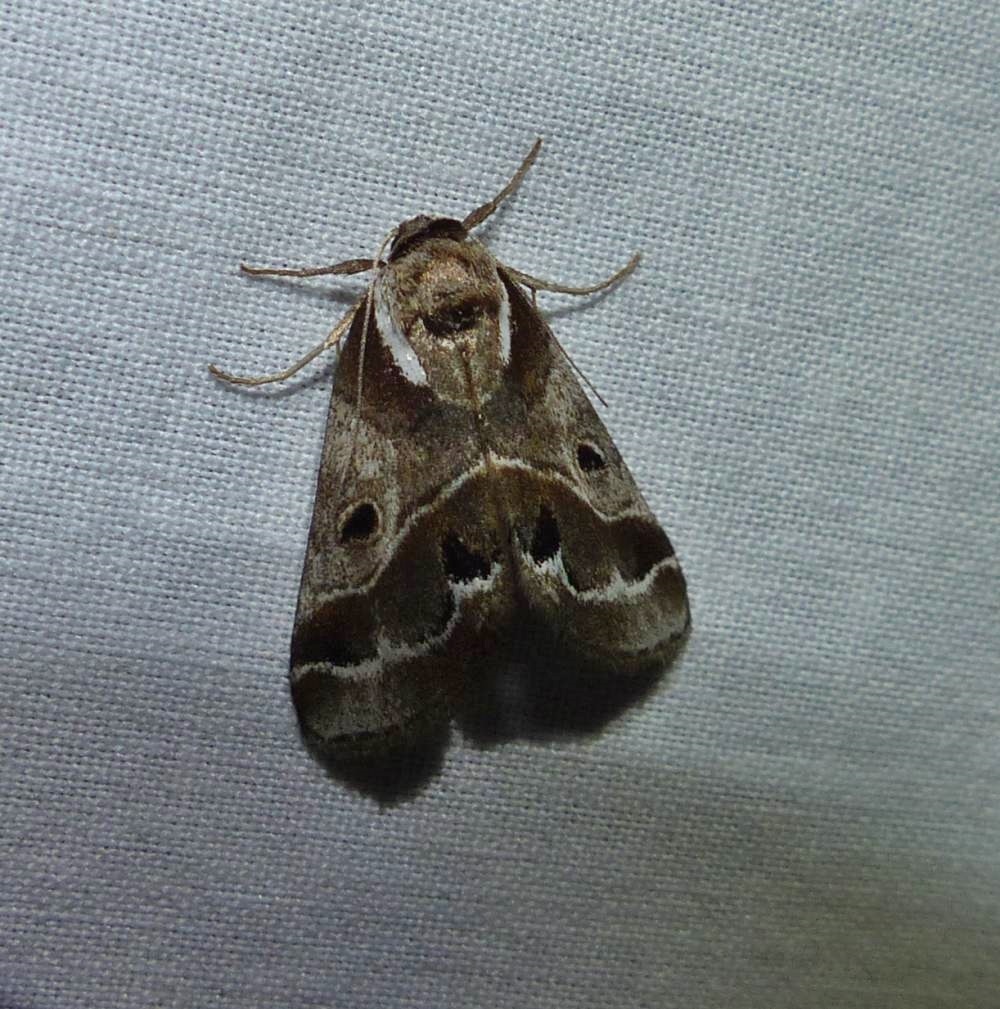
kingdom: Animalia
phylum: Arthropoda
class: Insecta
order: Lepidoptera
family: Nolidae
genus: Baileya
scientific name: Baileya doubledayi
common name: Doubleday's baileya moth
